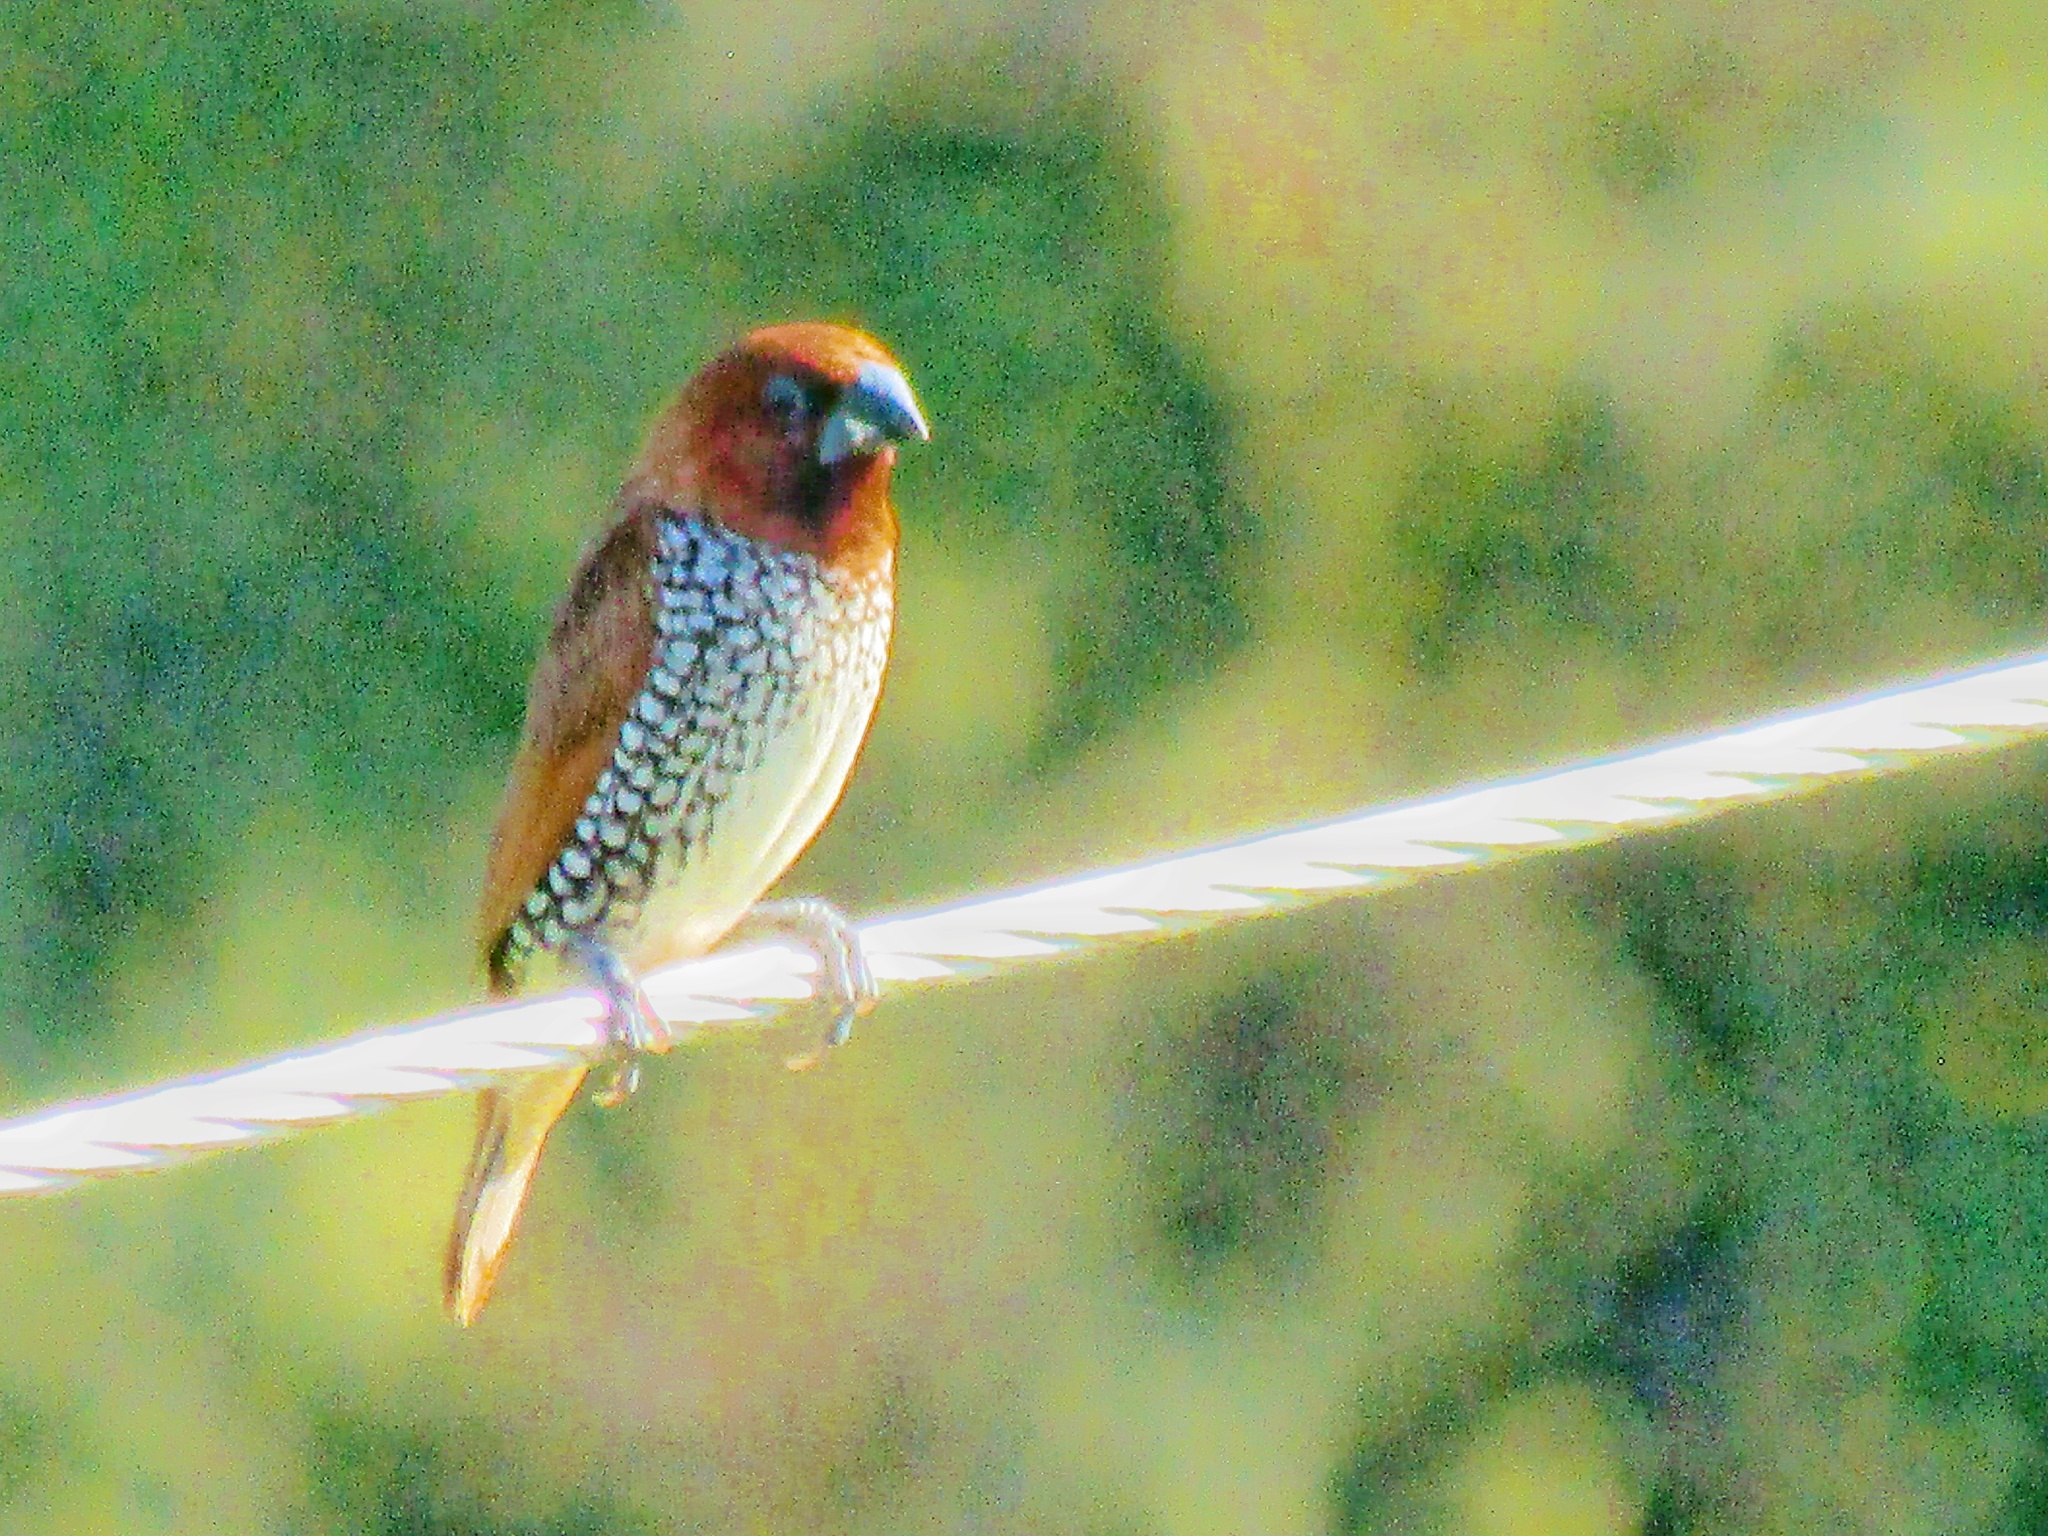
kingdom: Animalia
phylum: Chordata
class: Aves
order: Passeriformes
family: Estrildidae
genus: Lonchura
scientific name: Lonchura punctulata
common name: Scaly-breasted munia
